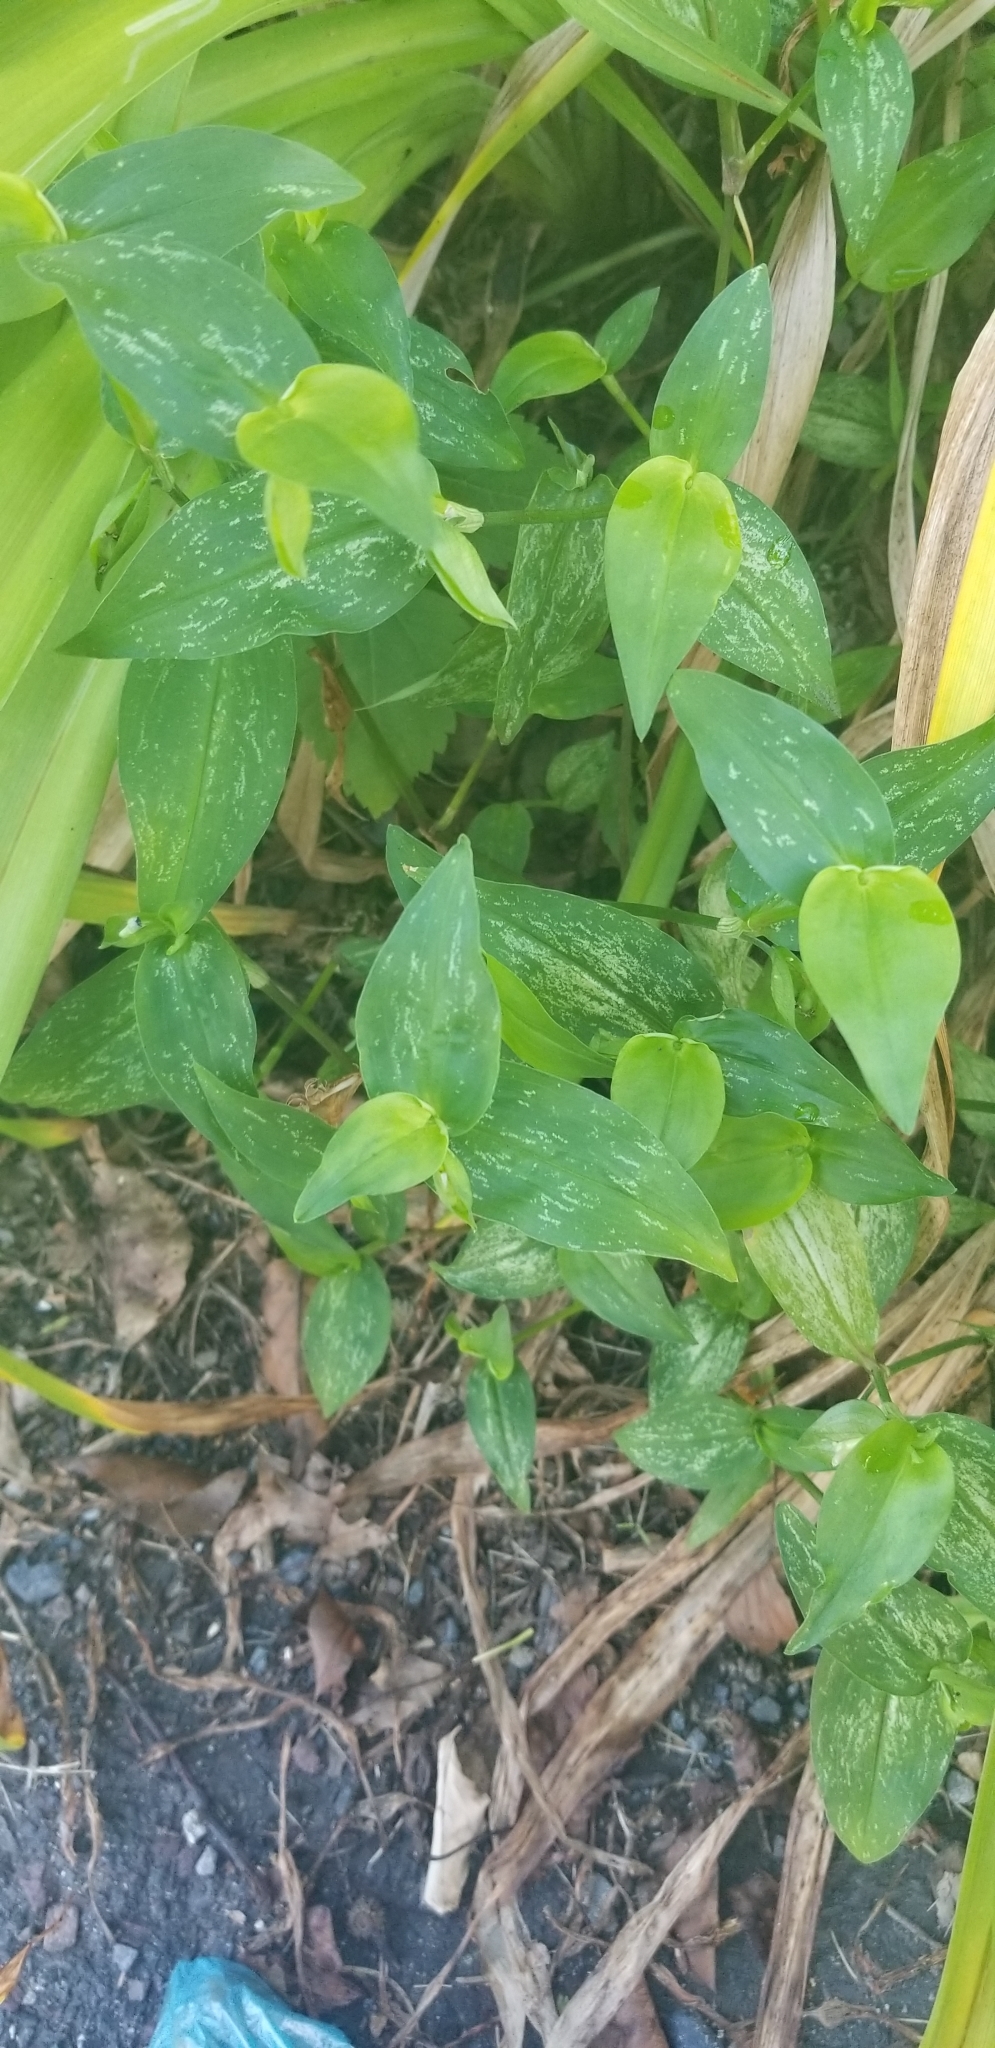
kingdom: Plantae
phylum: Tracheophyta
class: Liliopsida
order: Commelinales
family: Commelinaceae
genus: Commelina
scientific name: Commelina communis
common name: Asiatic dayflower
